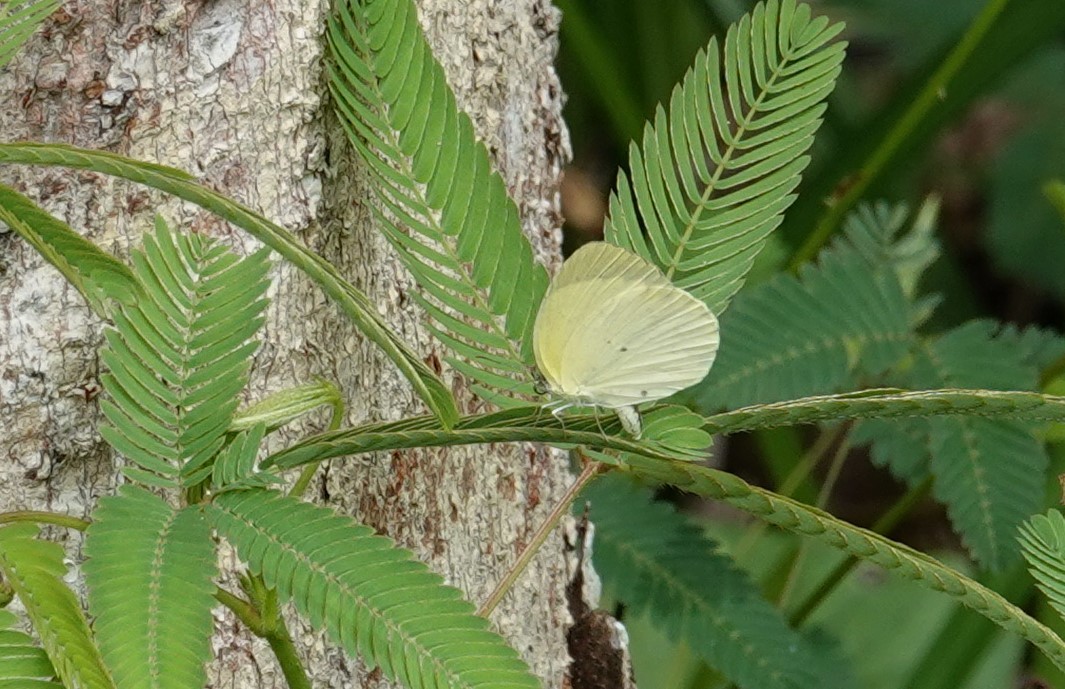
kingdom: Animalia
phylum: Arthropoda
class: Insecta
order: Lepidoptera
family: Pieridae
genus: Pyrisitia
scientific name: Pyrisitia nise
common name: Mimosa yellow
